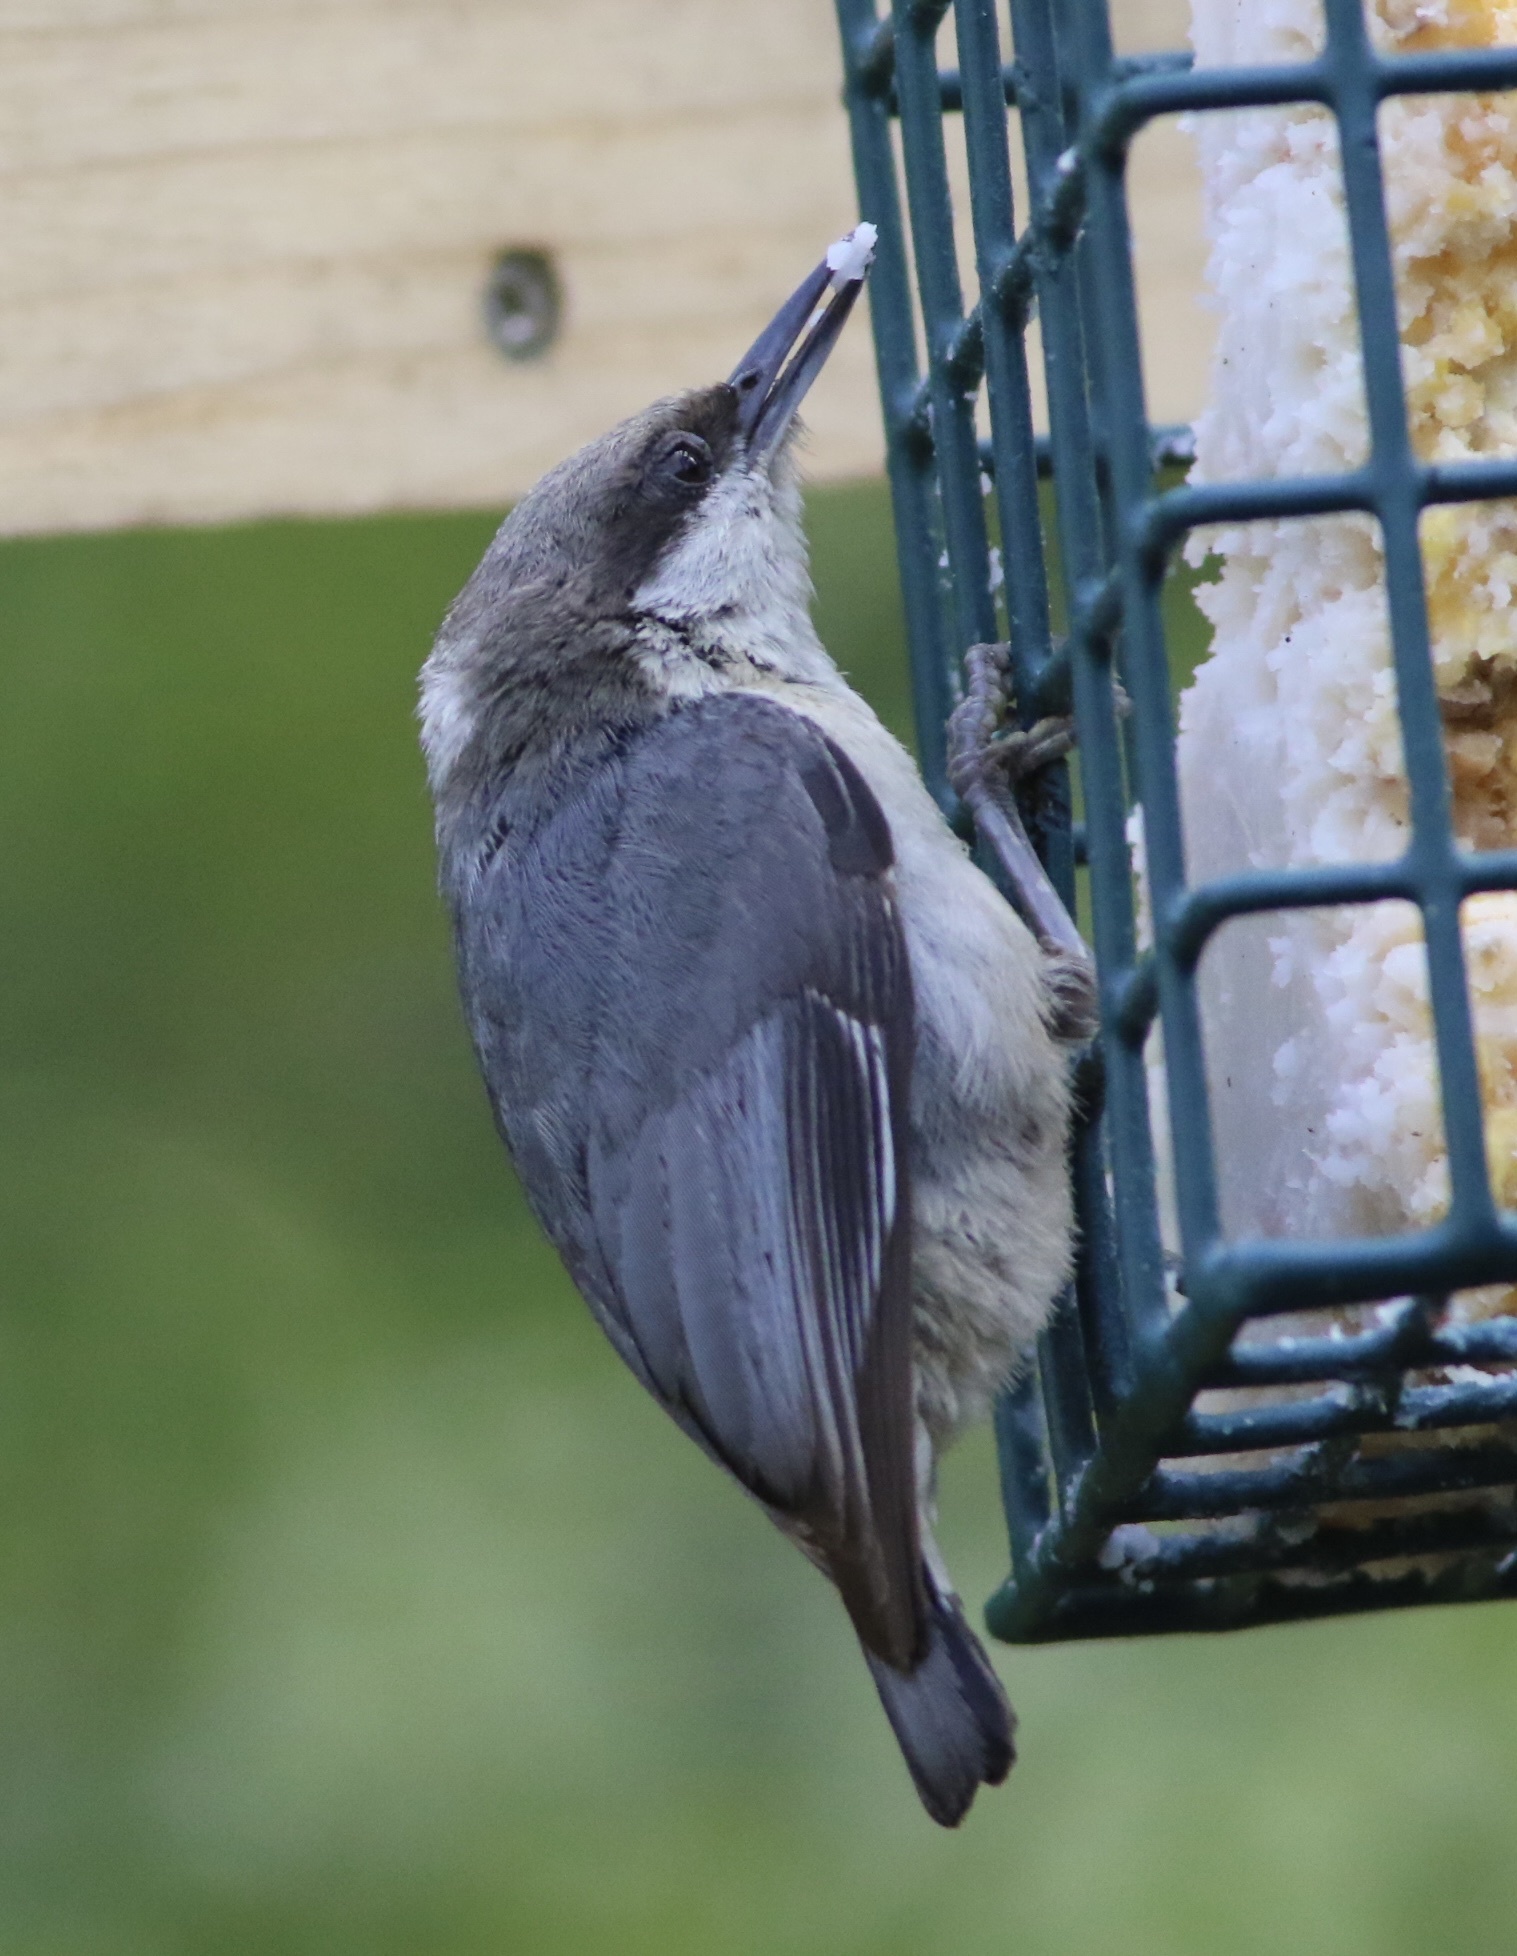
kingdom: Animalia
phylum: Chordata
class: Aves
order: Passeriformes
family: Sittidae
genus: Sitta
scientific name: Sitta pygmaea
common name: Pygmy nuthatch
